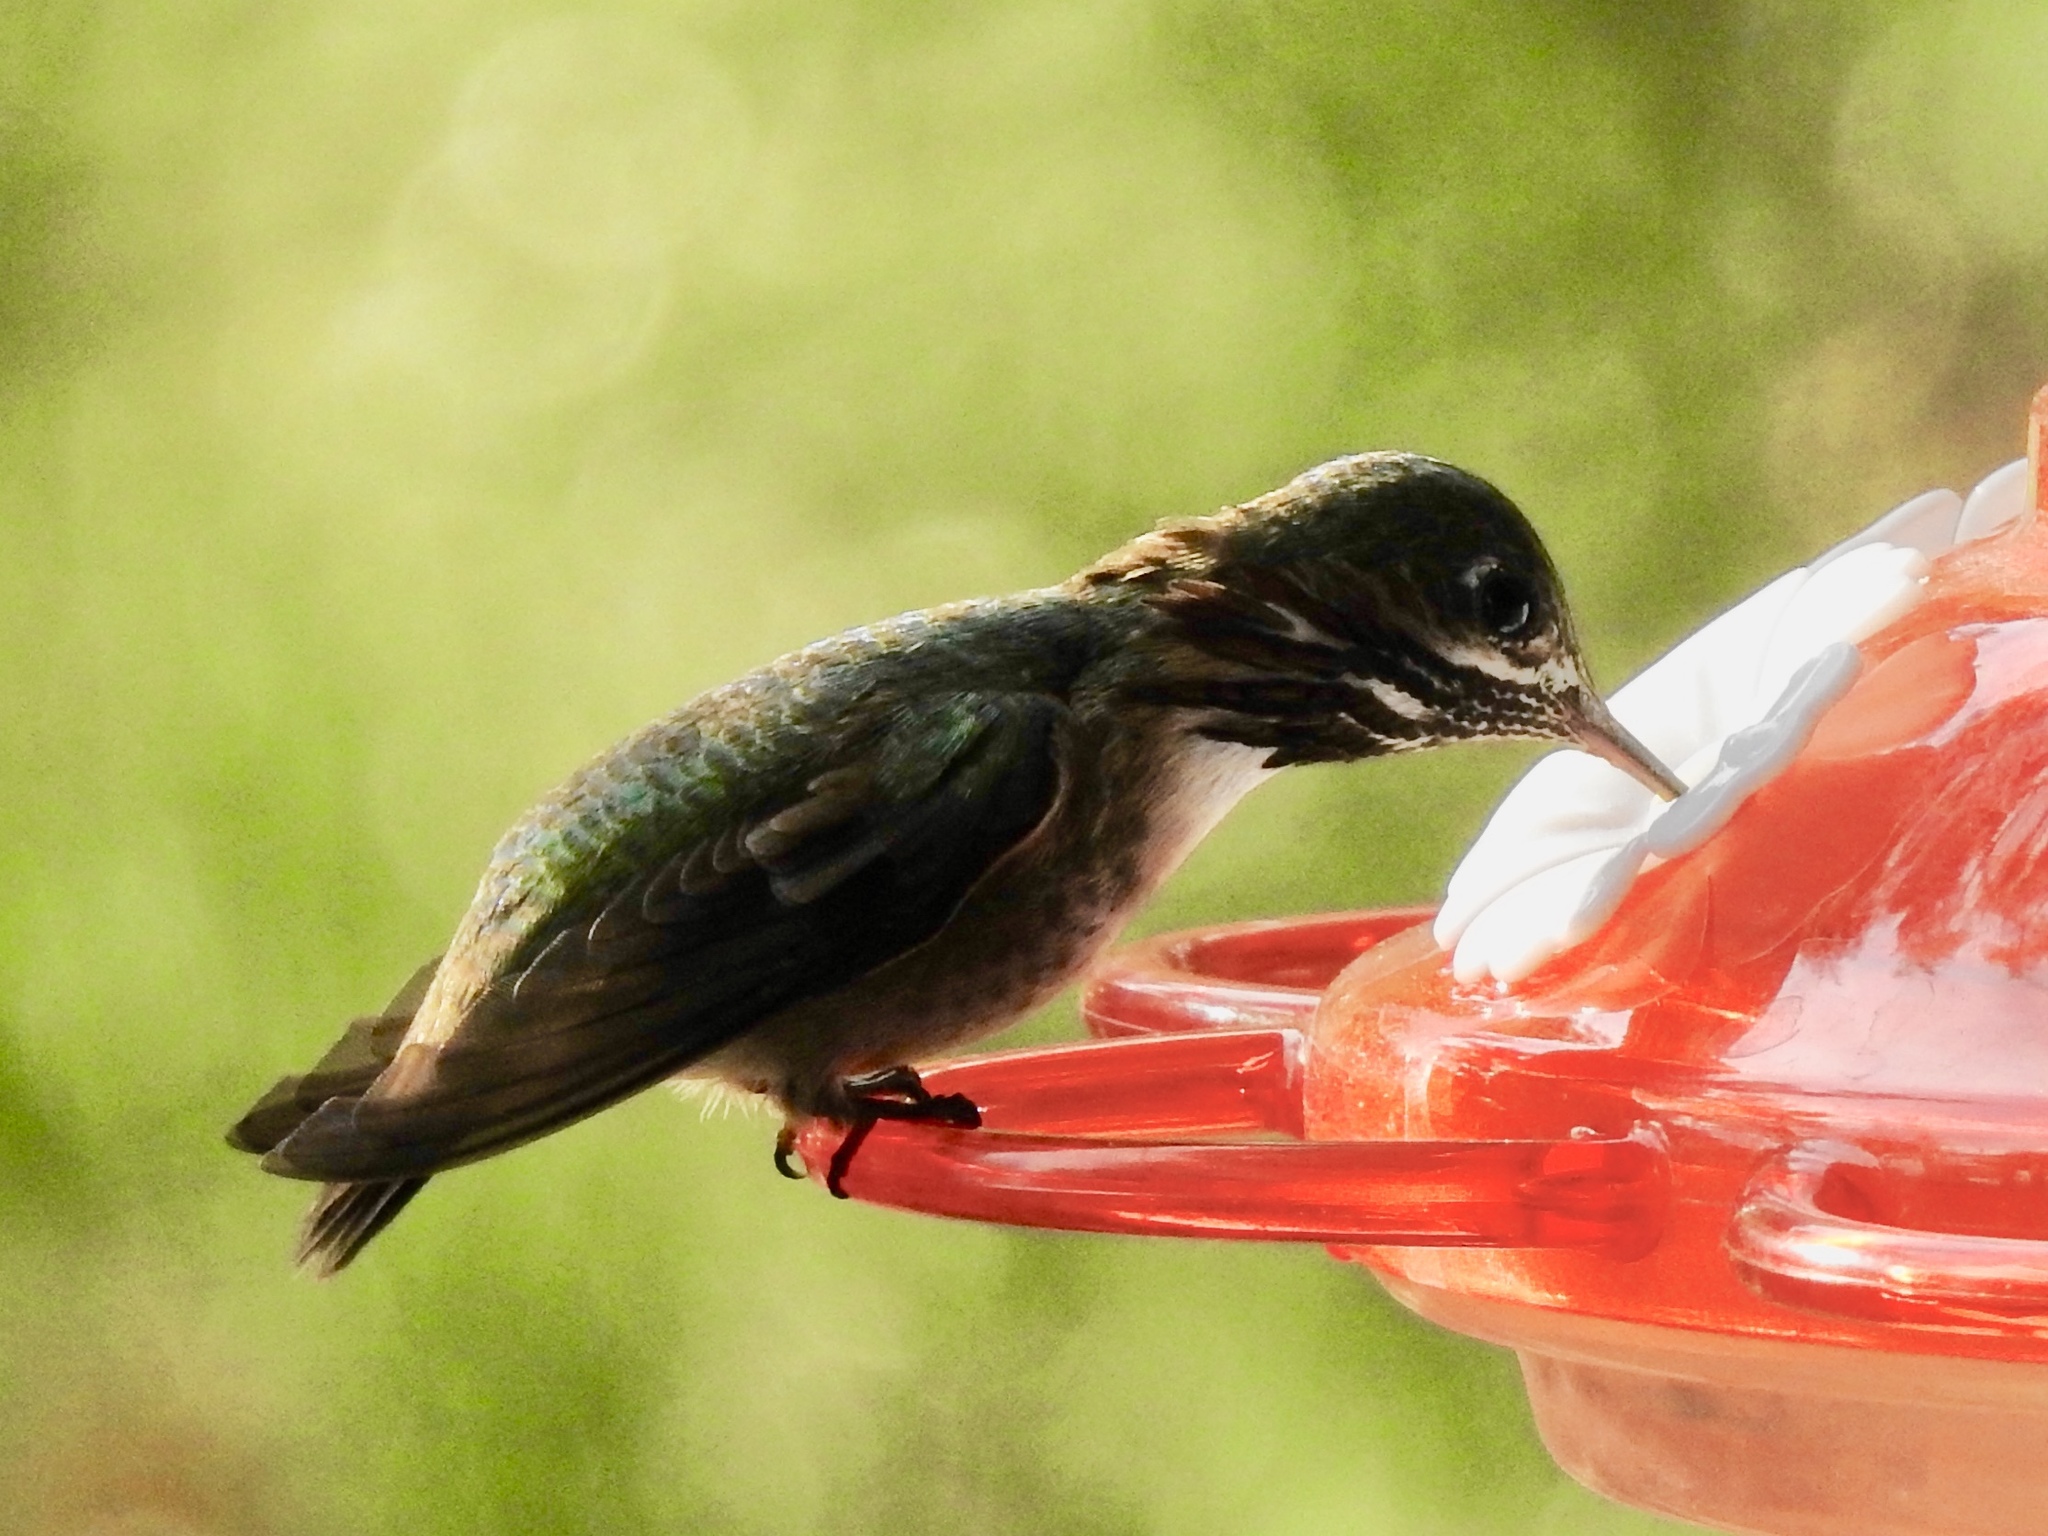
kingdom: Animalia
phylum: Chordata
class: Aves
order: Apodiformes
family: Trochilidae
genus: Selasphorus
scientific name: Selasphorus calliope
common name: Calliope hummingbird
